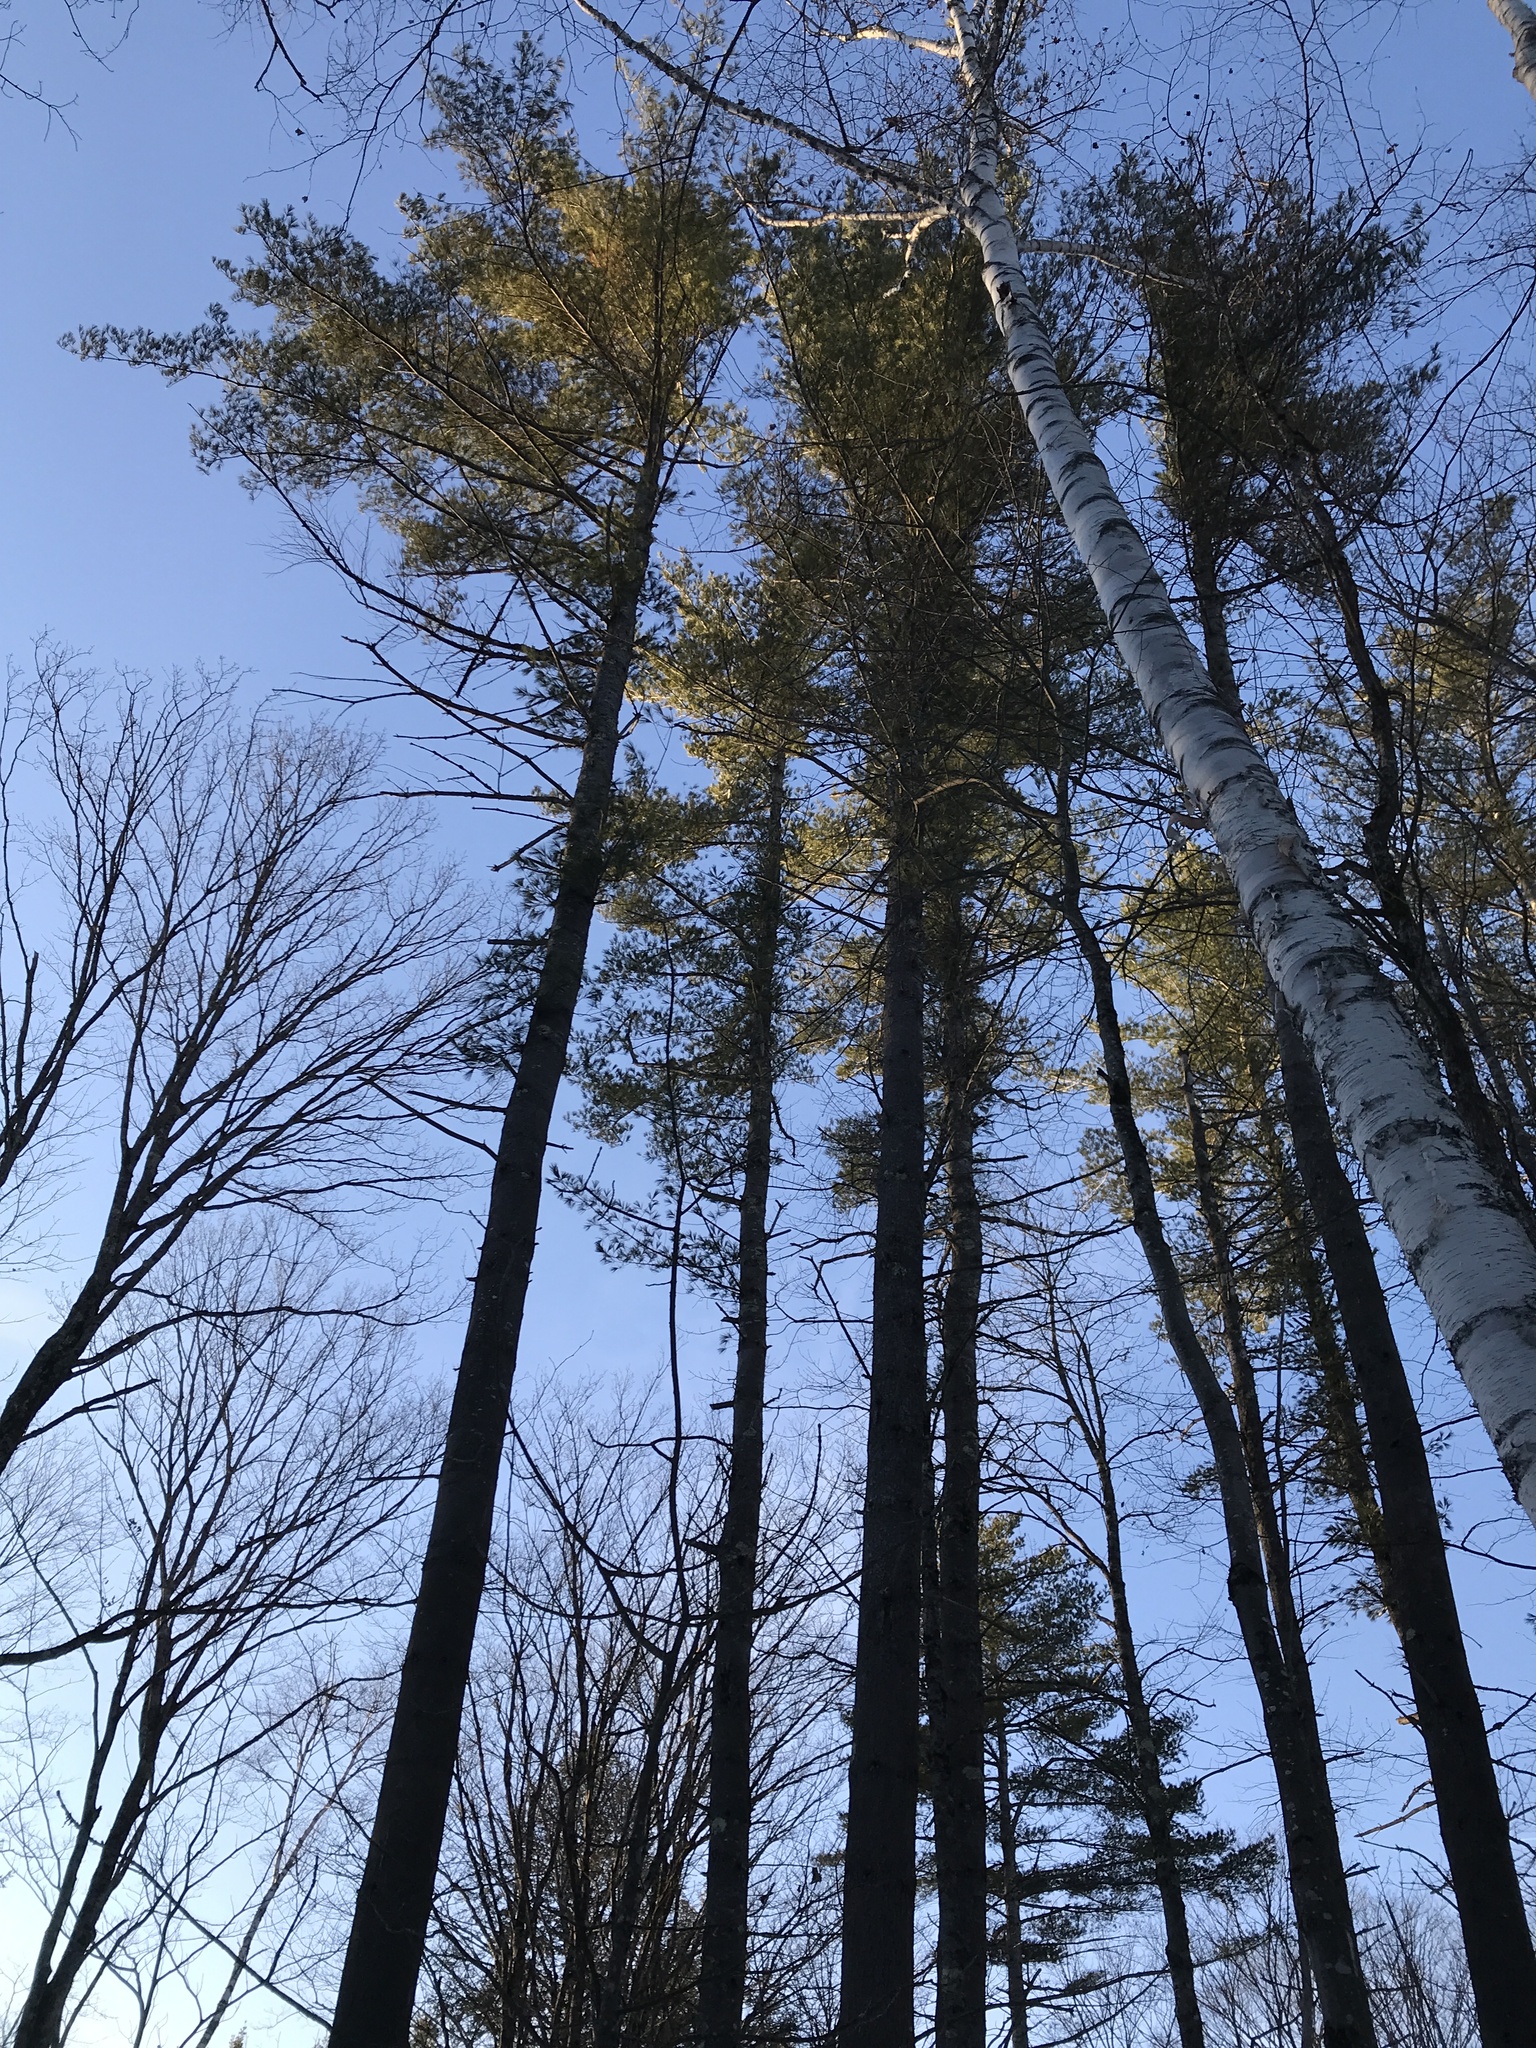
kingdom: Plantae
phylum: Tracheophyta
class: Pinopsida
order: Pinales
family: Pinaceae
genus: Pinus
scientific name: Pinus strobus
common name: Weymouth pine
